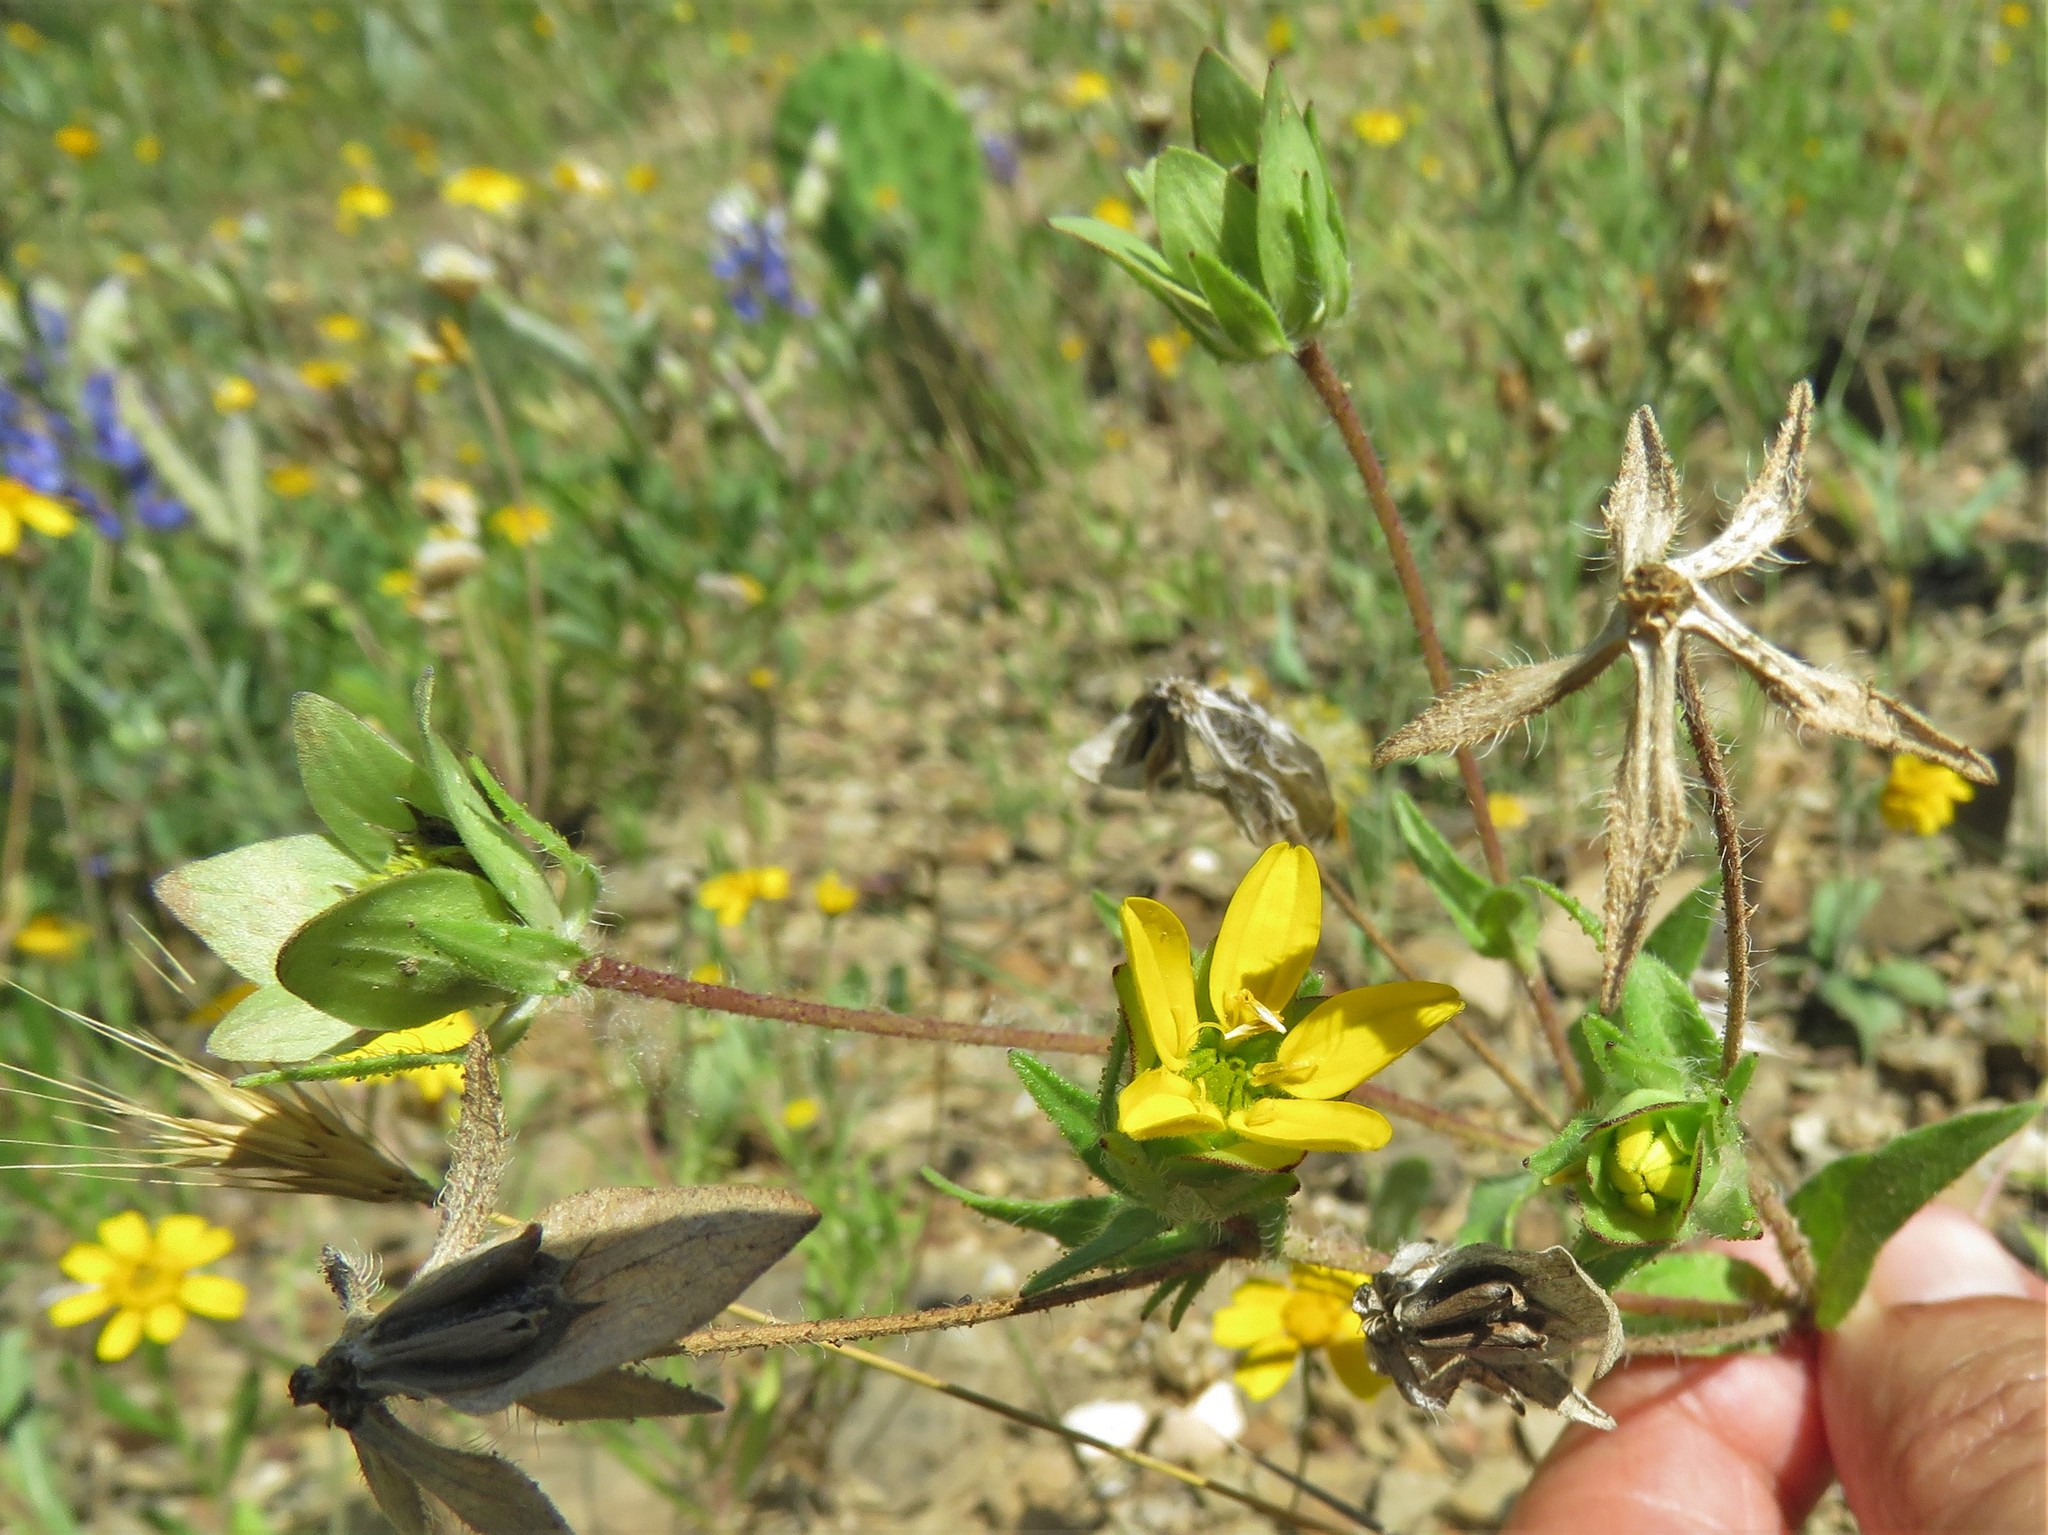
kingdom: Plantae
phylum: Tracheophyta
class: Magnoliopsida
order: Asterales
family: Asteraceae
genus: Lindheimera
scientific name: Lindheimera texana
